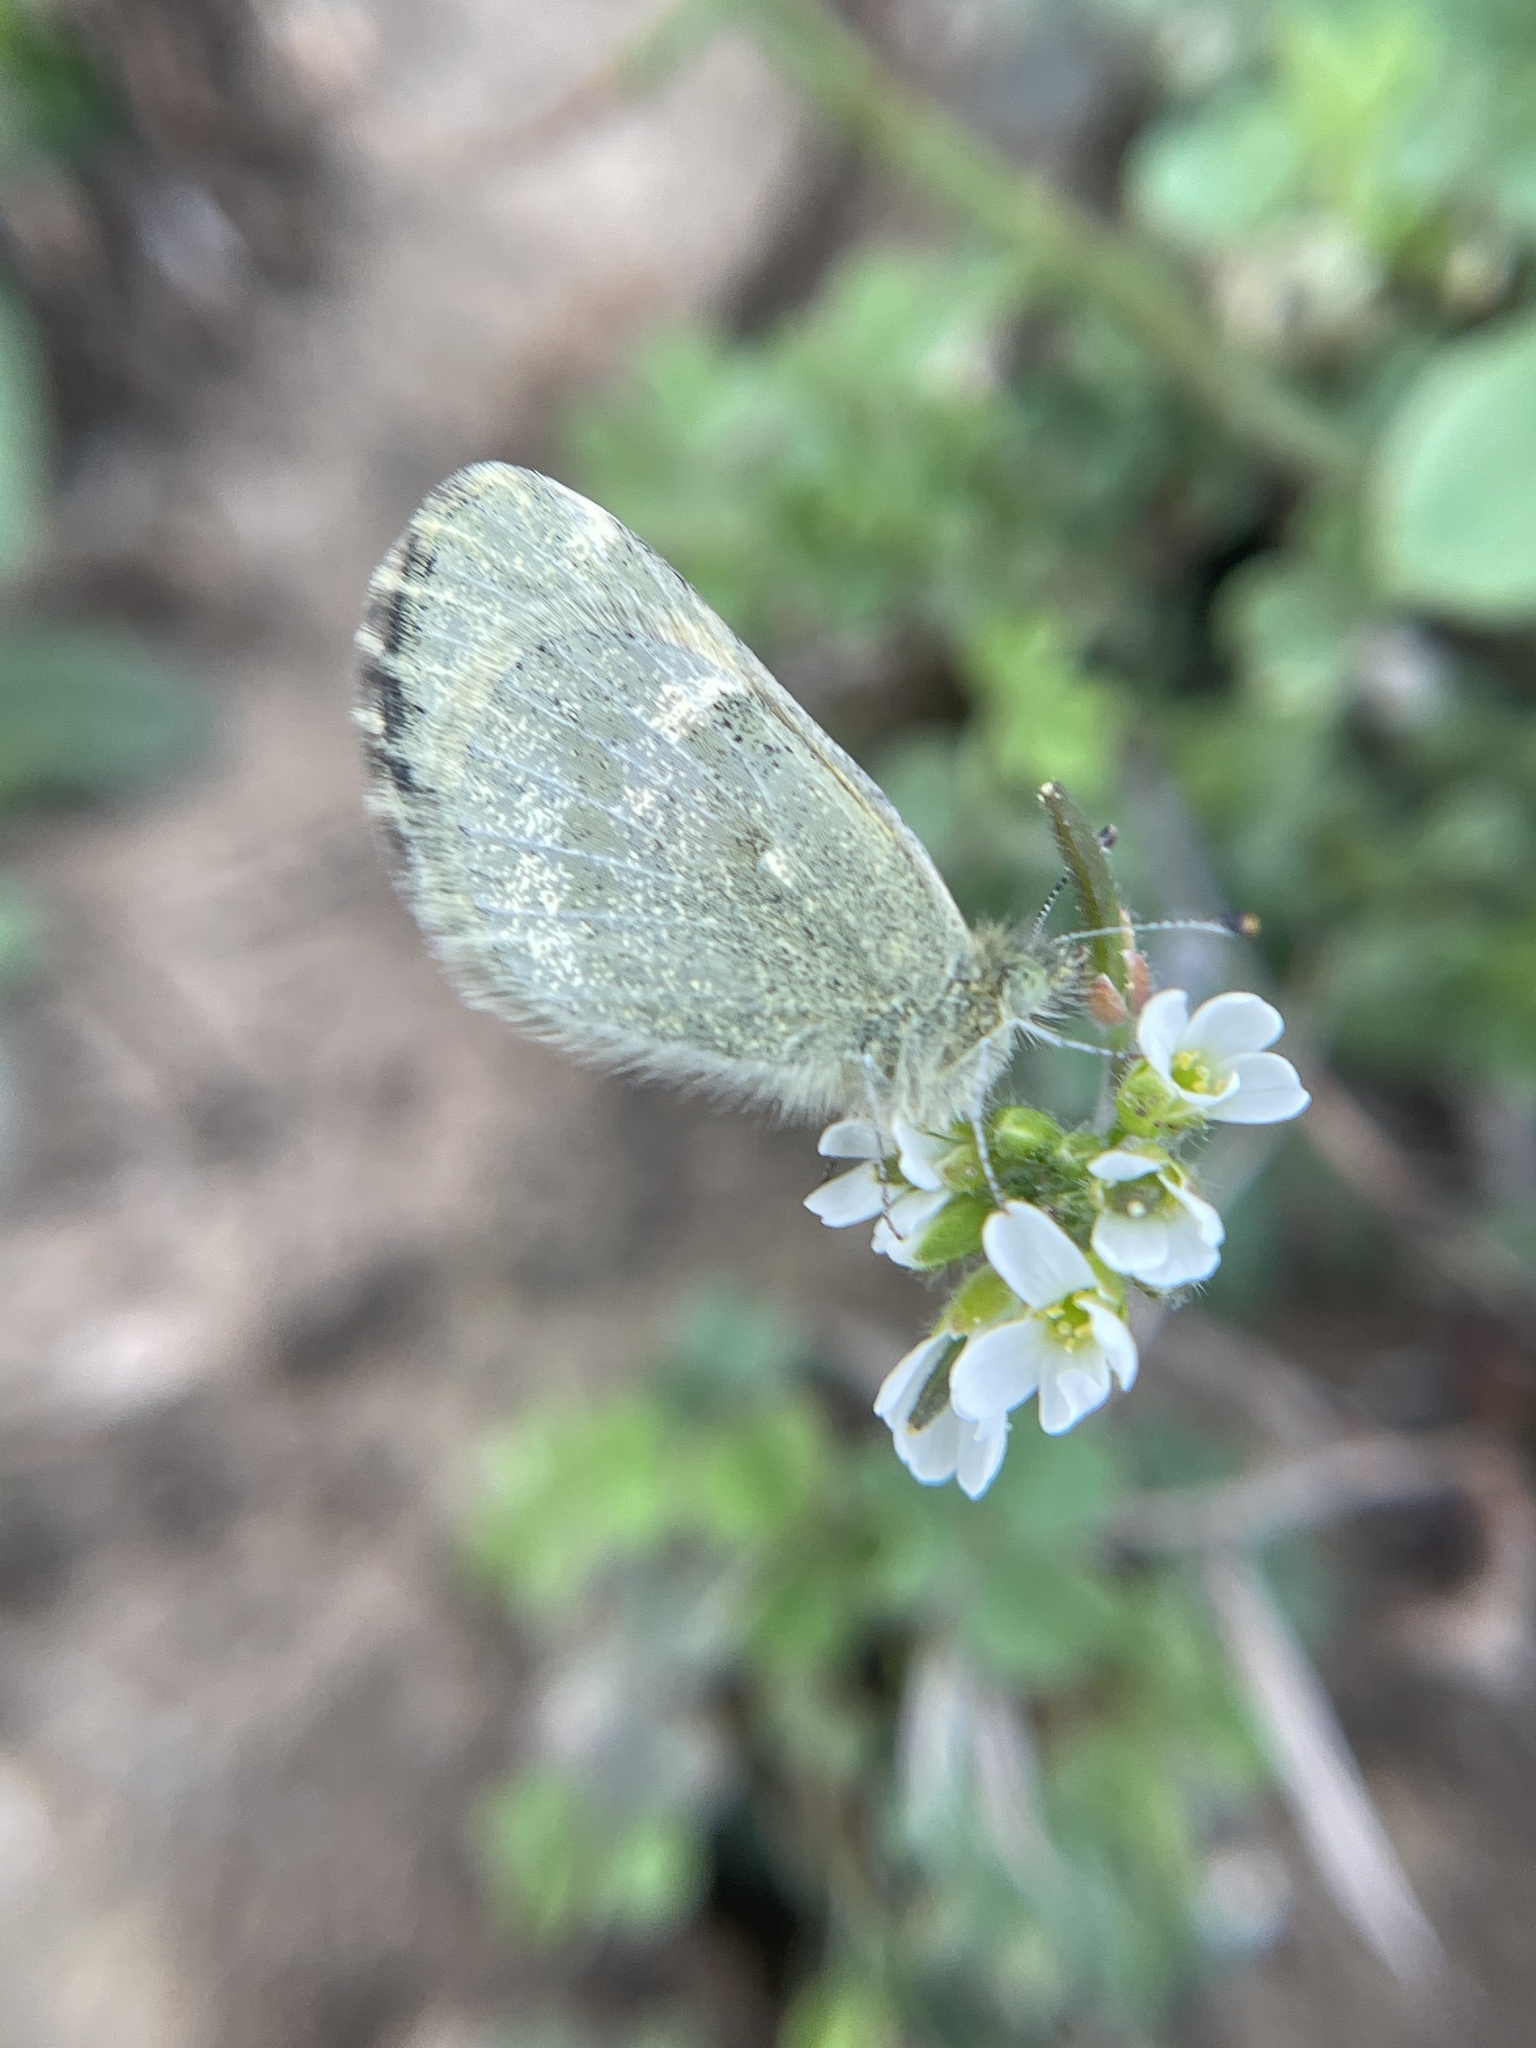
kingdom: Animalia
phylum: Arthropoda
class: Insecta
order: Lepidoptera
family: Pieridae
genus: Nathalis
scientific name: Nathalis iole
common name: Dainty sulphur
